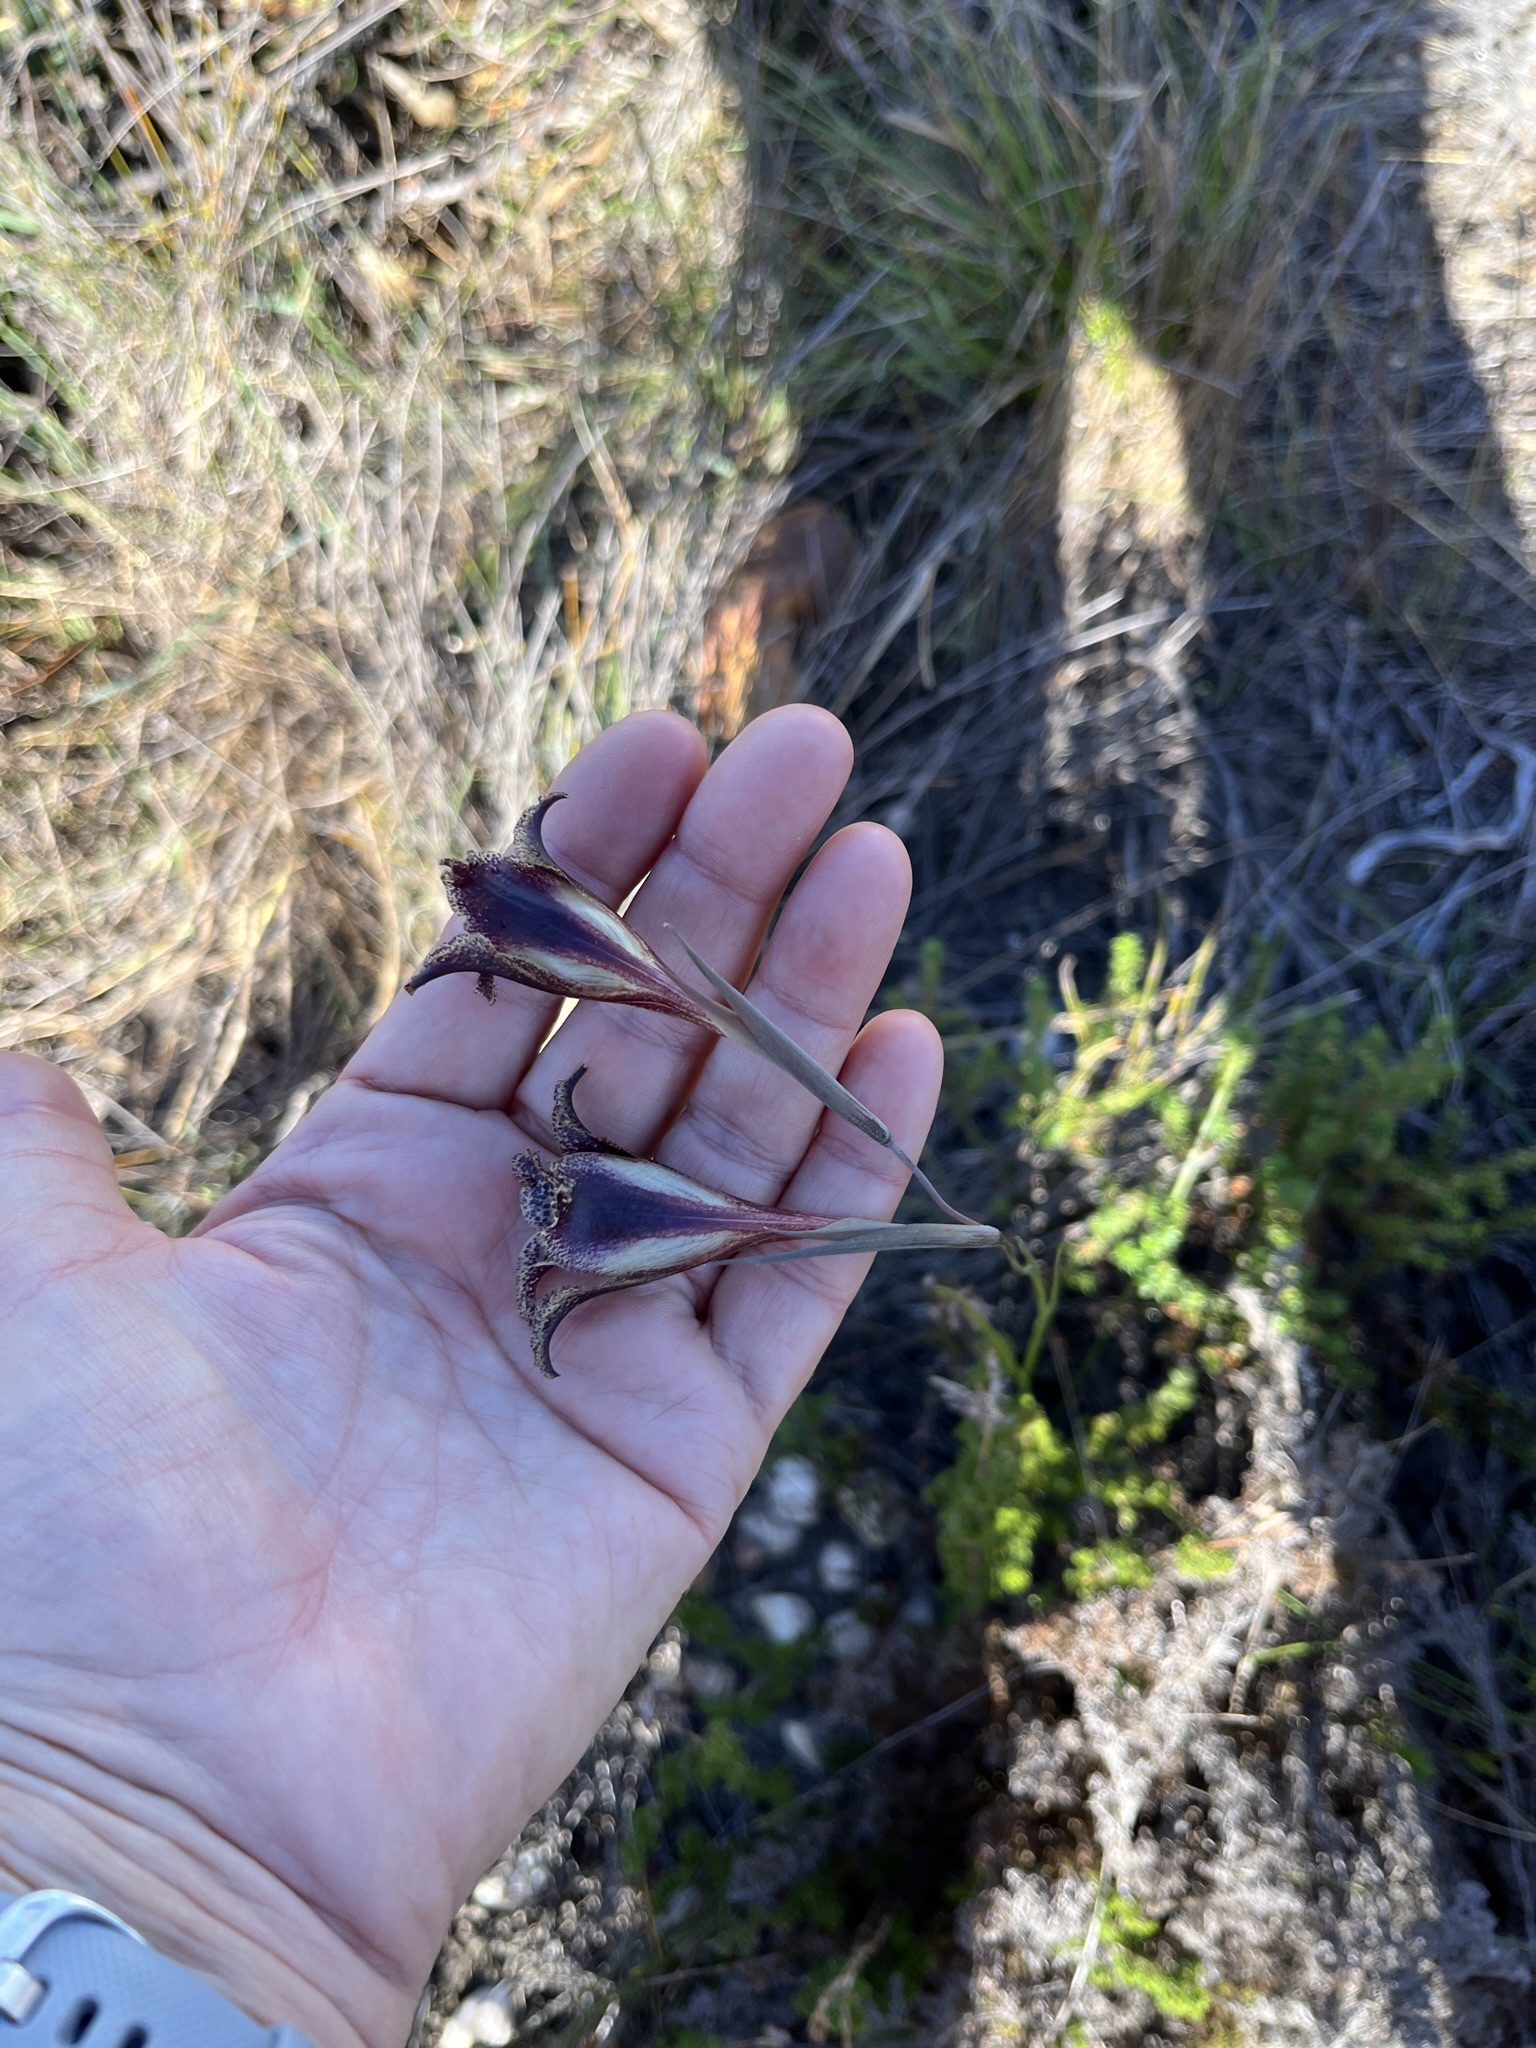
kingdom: Plantae
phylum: Tracheophyta
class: Liliopsida
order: Asparagales
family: Iridaceae
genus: Gladiolus
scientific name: Gladiolus maculatus
